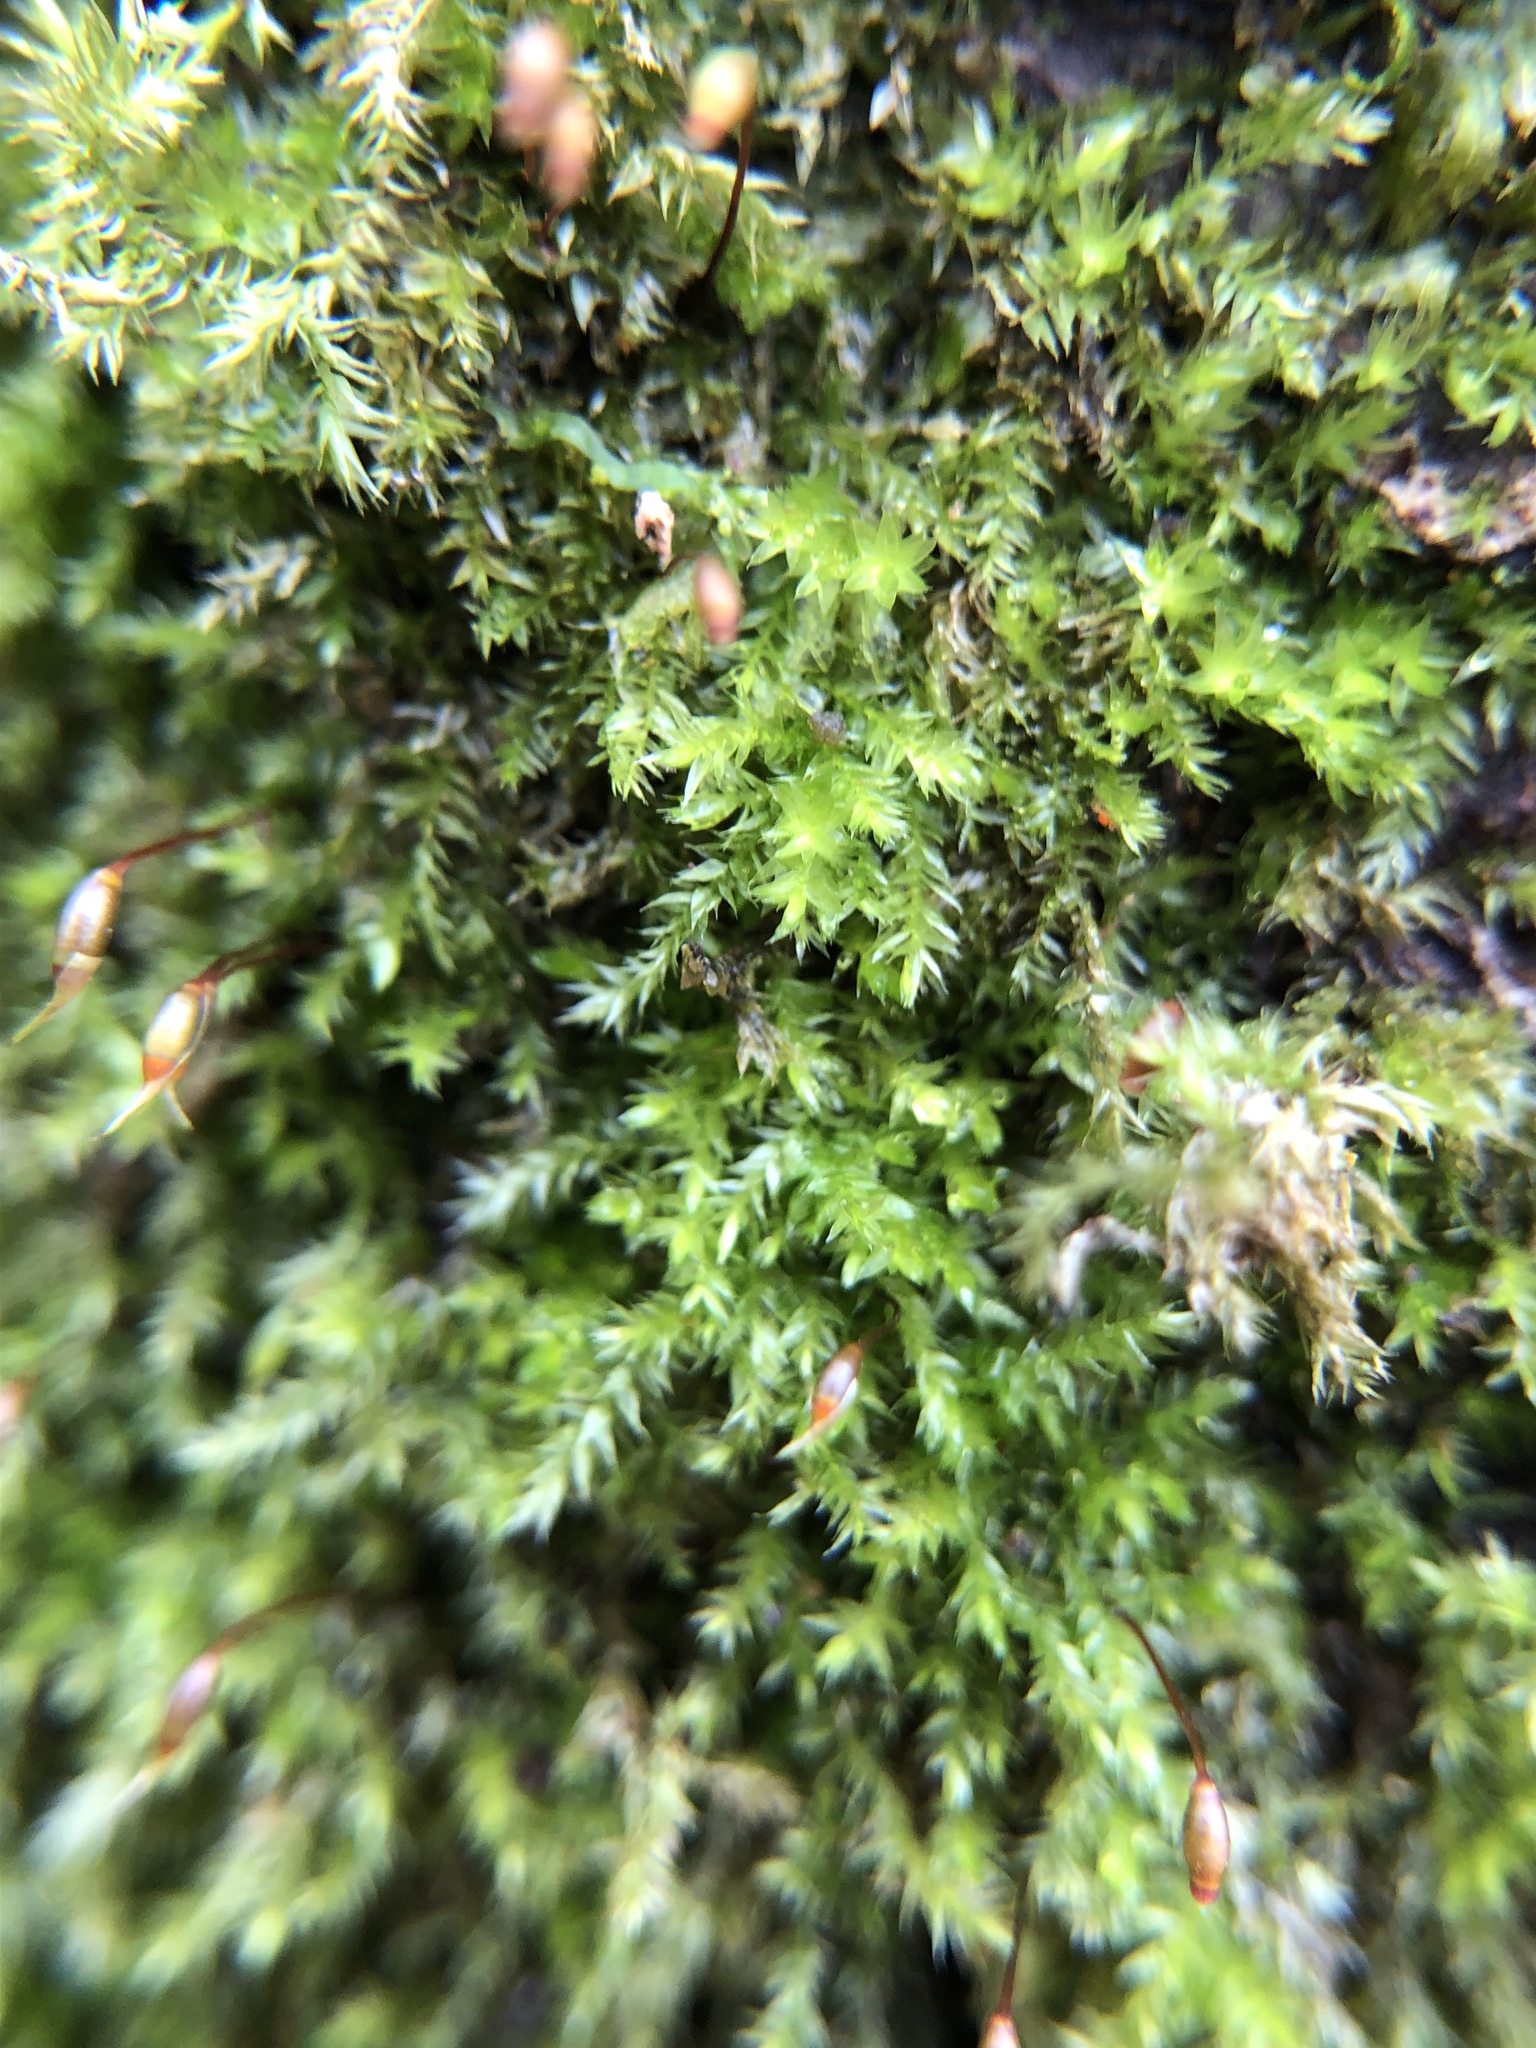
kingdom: Plantae
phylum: Bryophyta
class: Bryopsida
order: Hypnales
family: Brachytheciaceae
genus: Rhynchostegium
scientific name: Rhynchostegium confertum
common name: Clustered feather-moss
